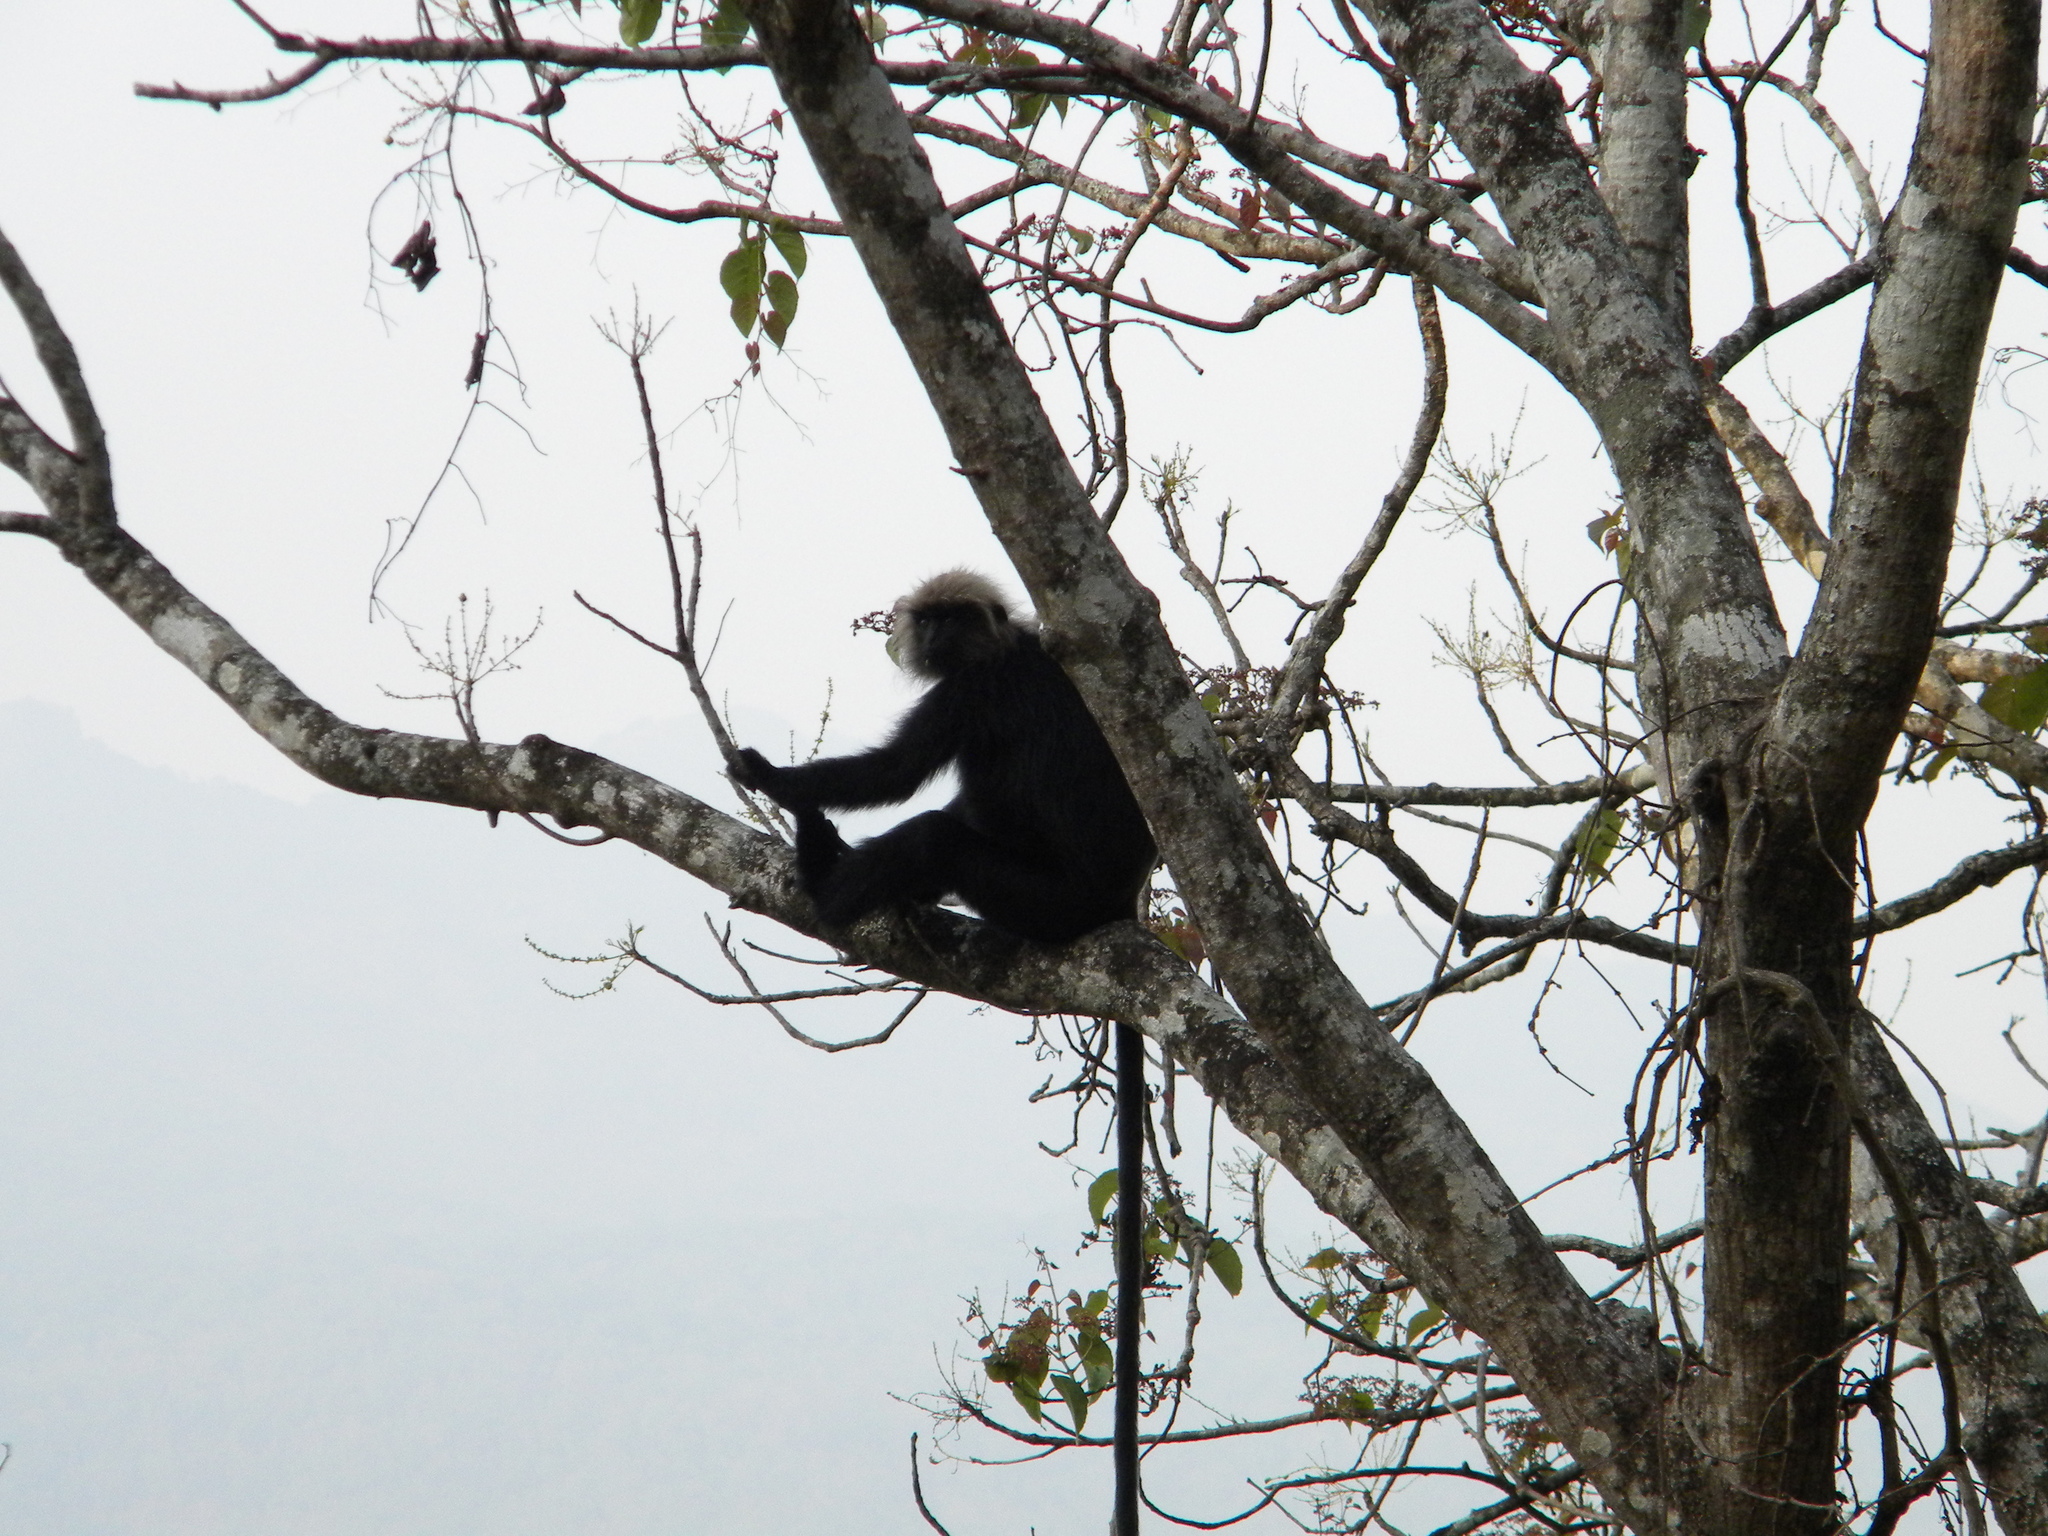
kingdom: Animalia
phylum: Chordata
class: Mammalia
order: Primates
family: Cercopithecidae
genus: Semnopithecus
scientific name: Semnopithecus johnii
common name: Nilgiri langur
